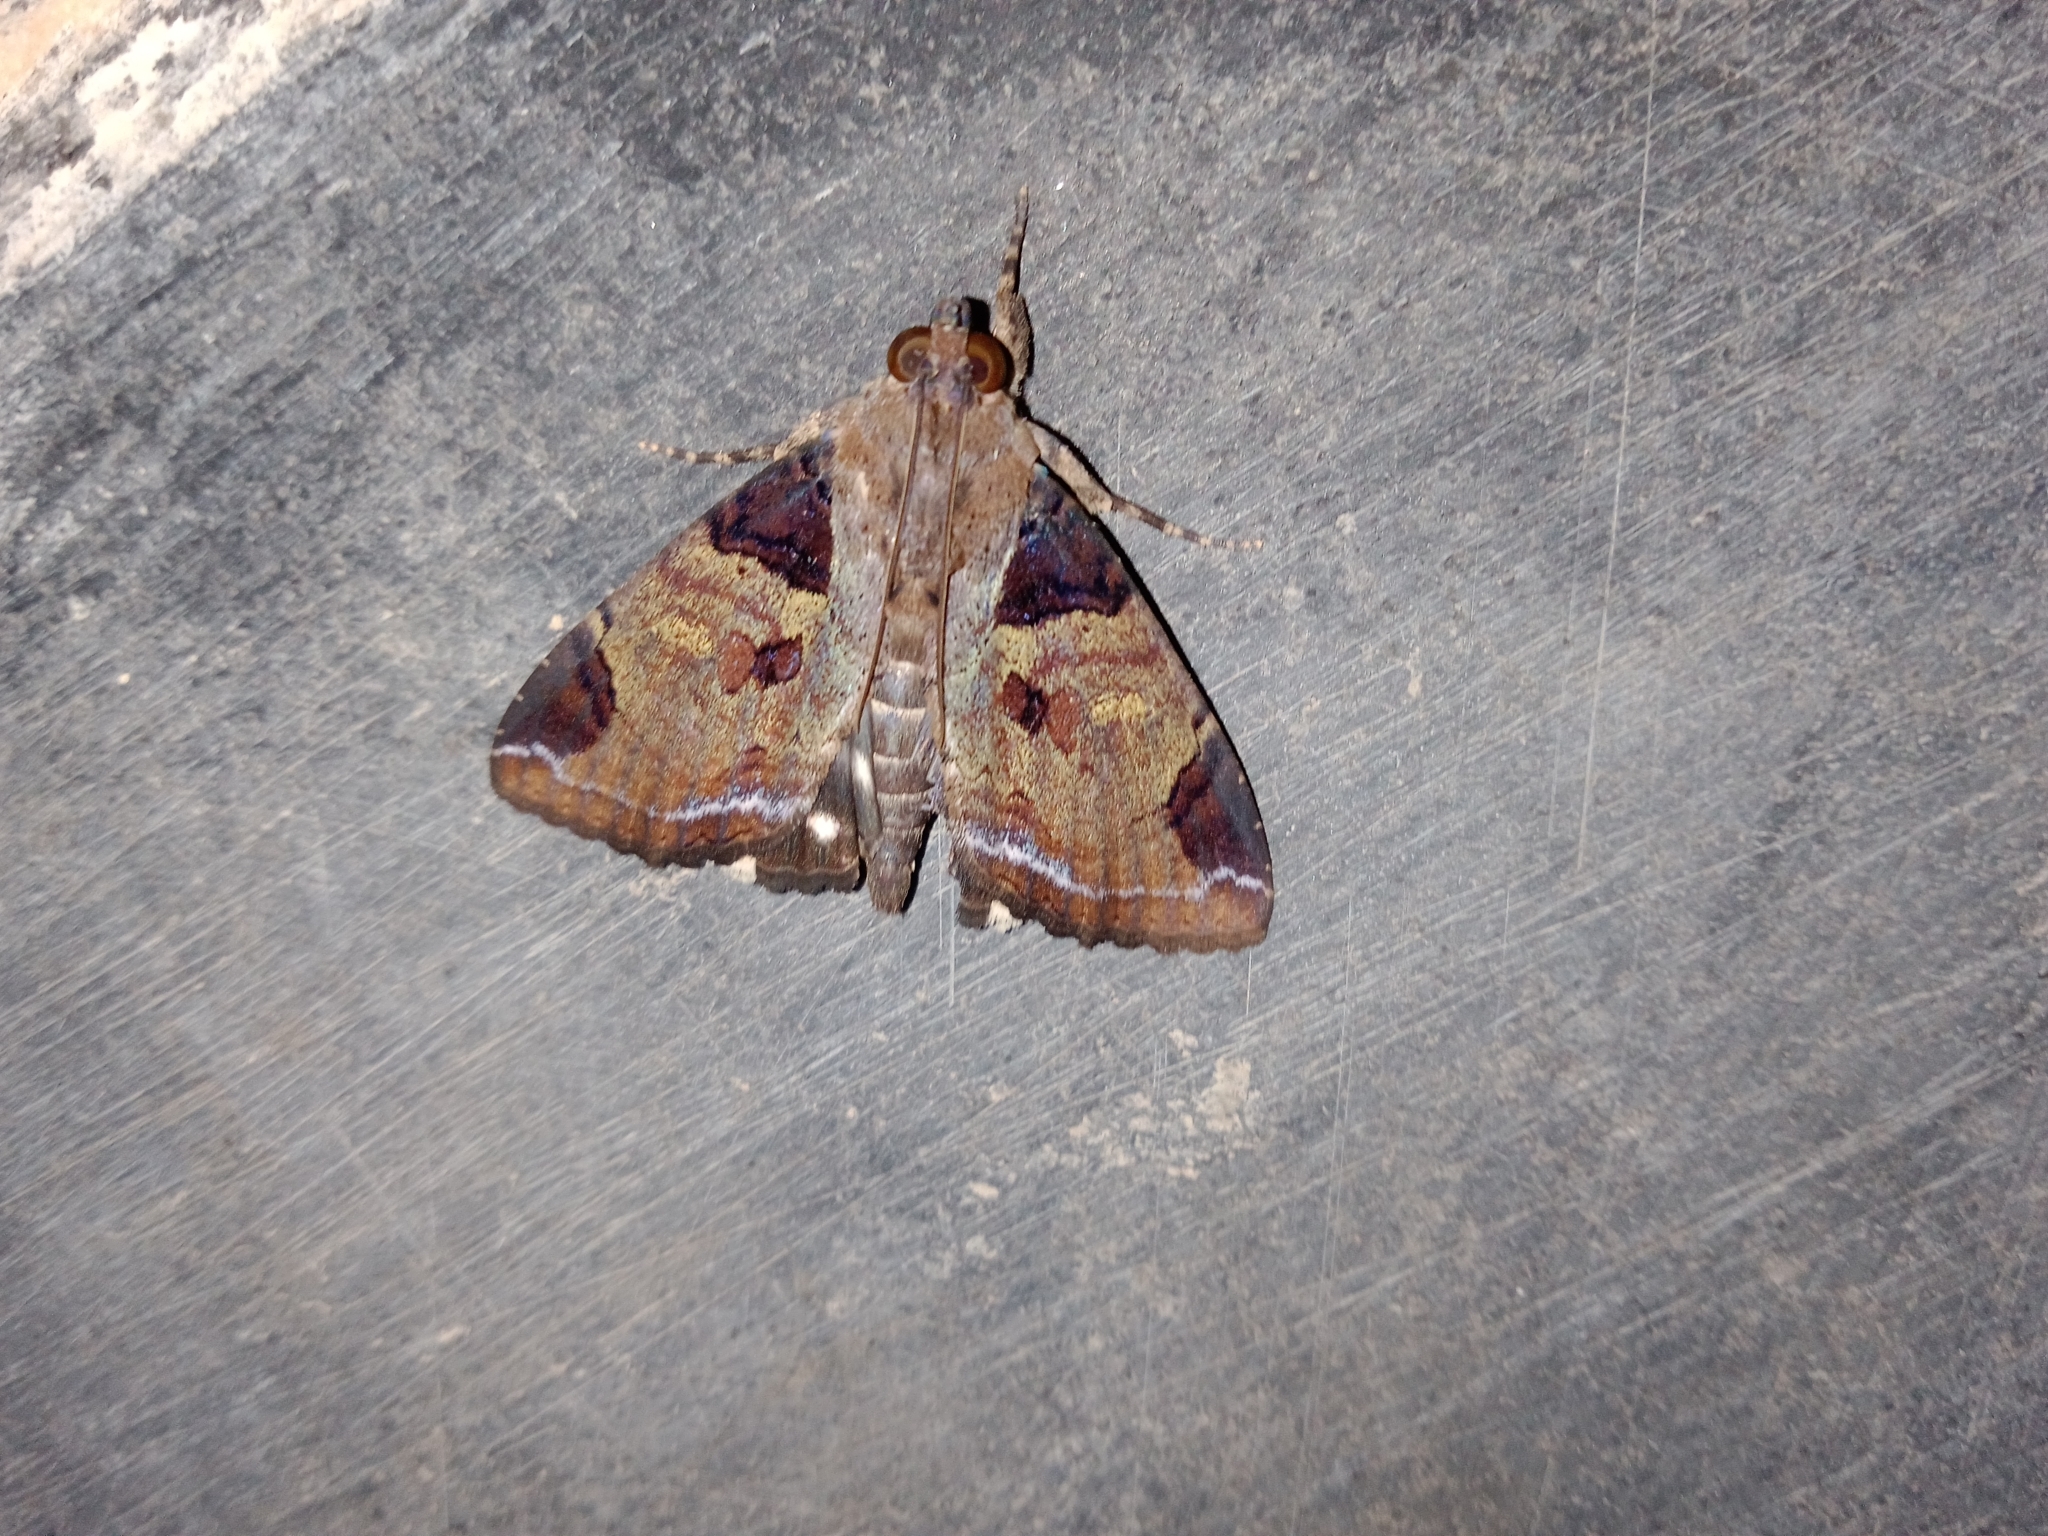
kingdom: Animalia
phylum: Arthropoda
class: Insecta
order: Lepidoptera
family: Erebidae
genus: Ercheia
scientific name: Ercheia cyllaria
